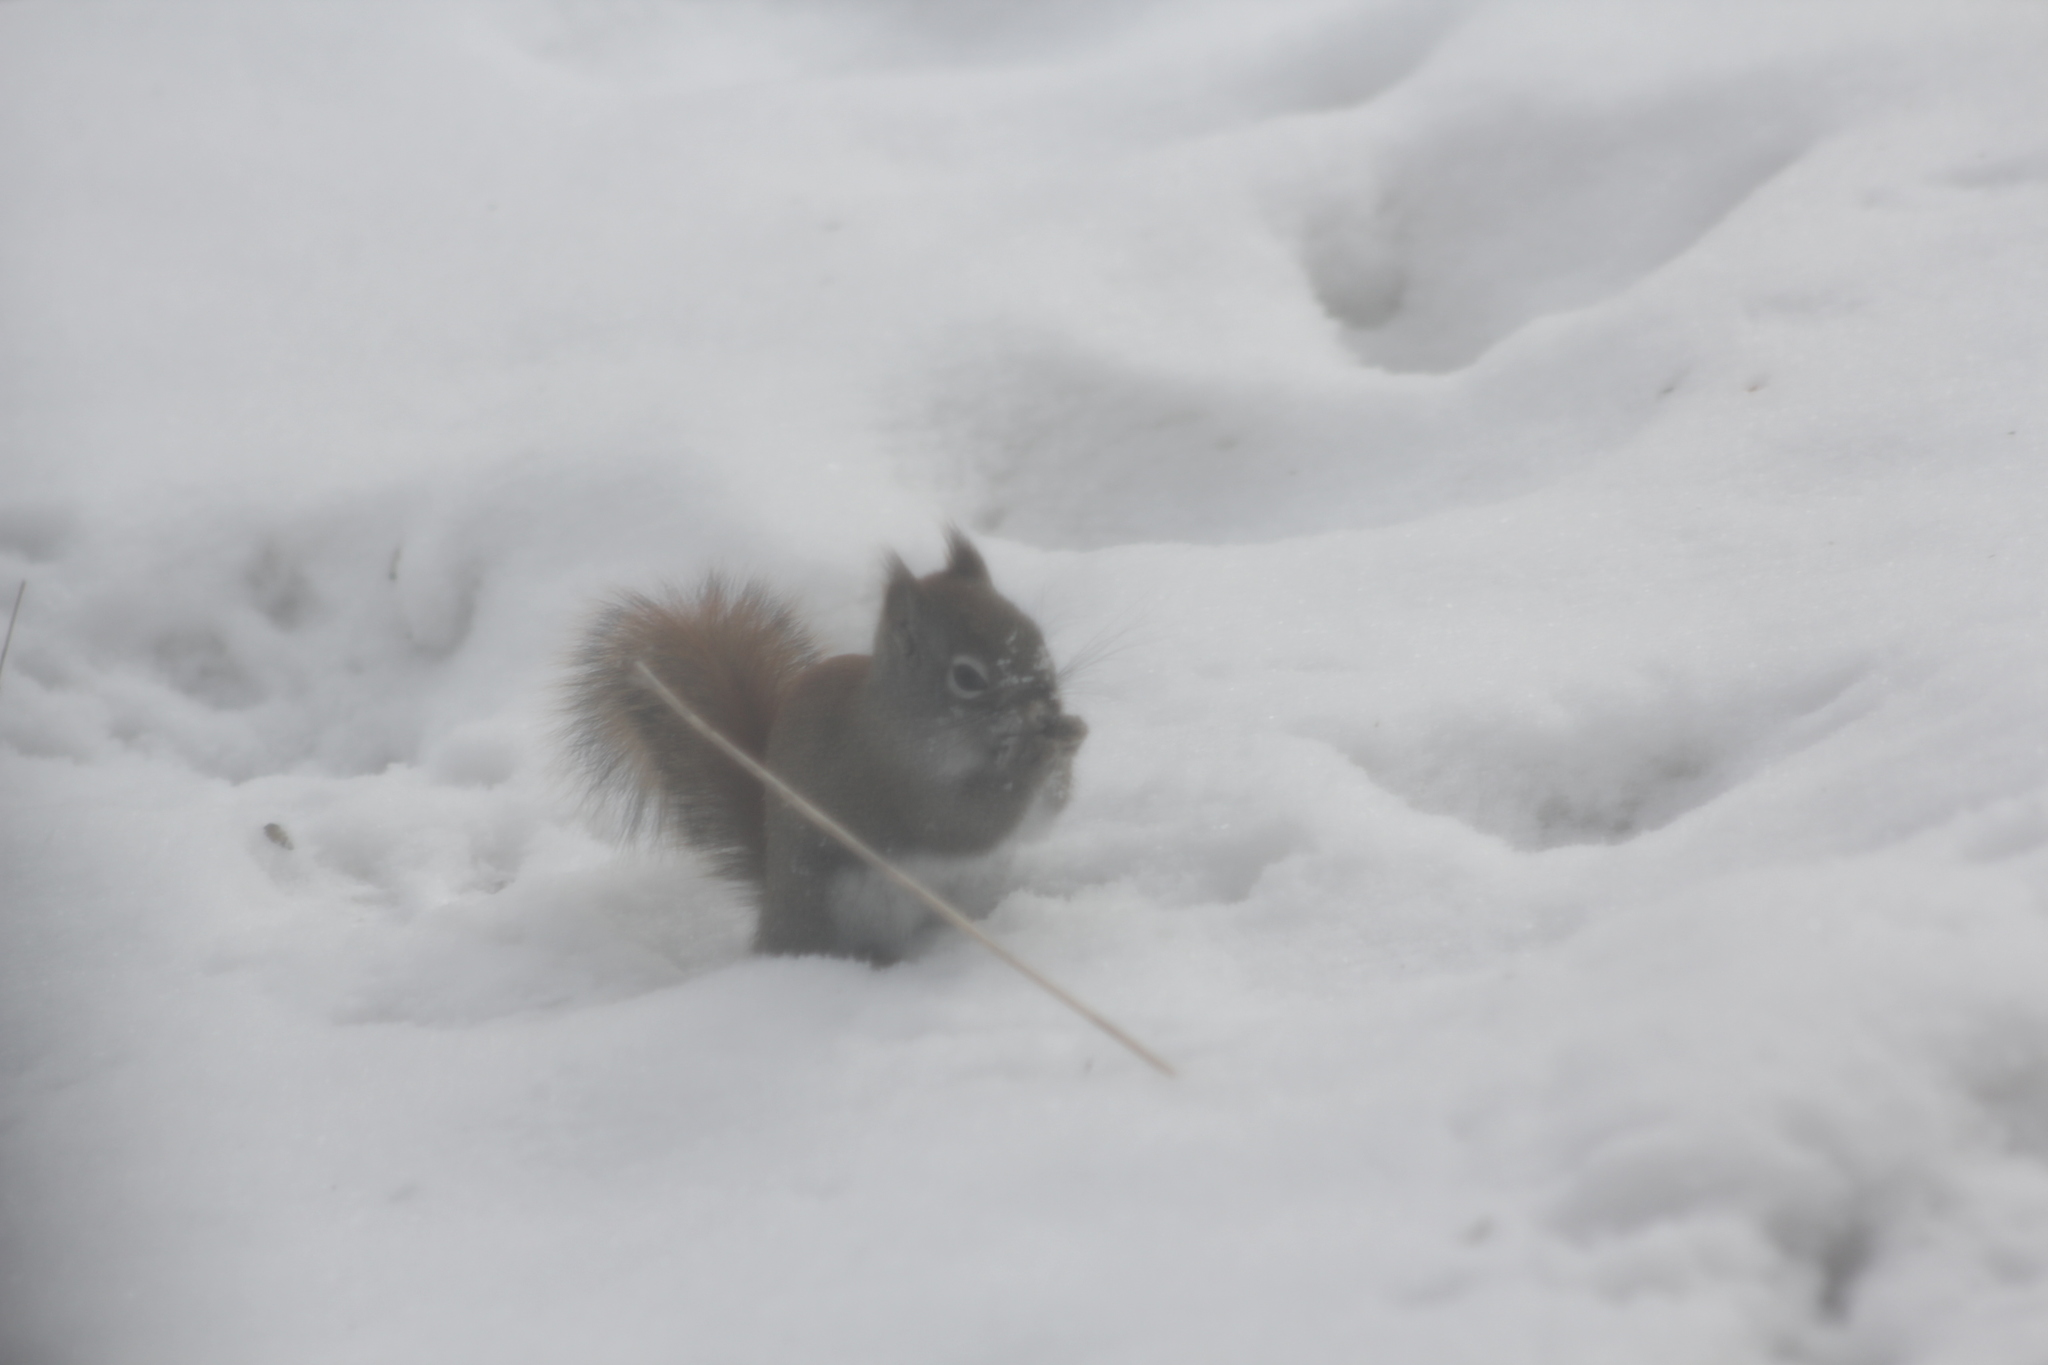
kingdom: Animalia
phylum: Chordata
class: Mammalia
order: Rodentia
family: Sciuridae
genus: Tamiasciurus
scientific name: Tamiasciurus hudsonicus
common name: Red squirrel
